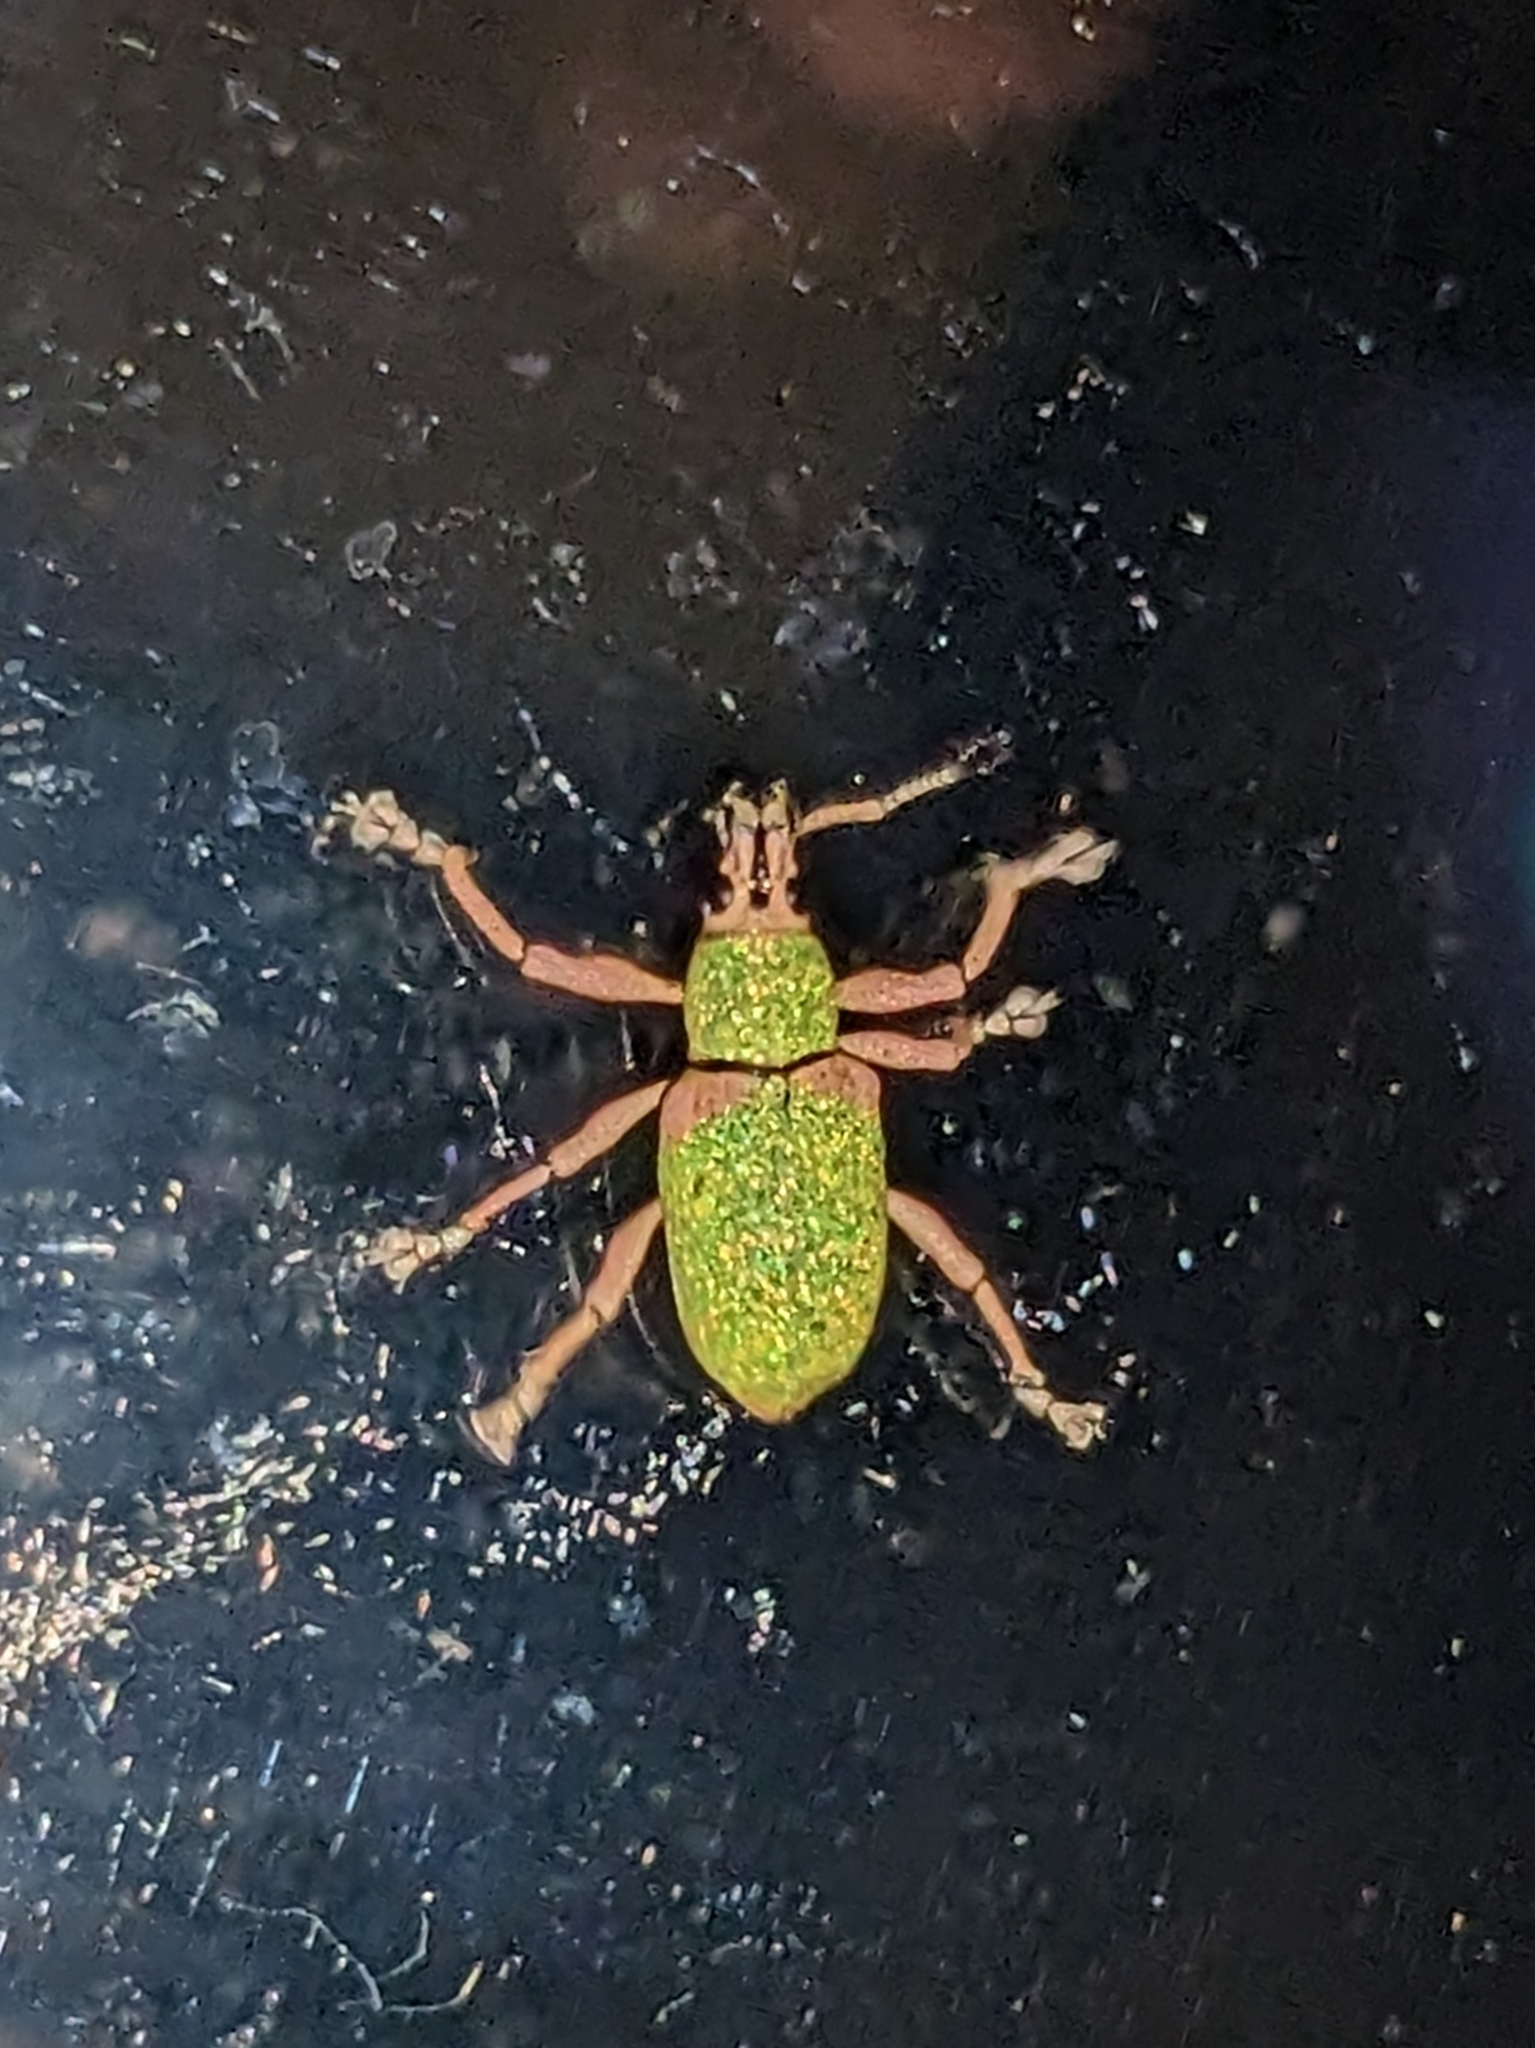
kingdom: Animalia
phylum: Arthropoda
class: Insecta
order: Coleoptera
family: Curculionidae
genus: Exophthalmus
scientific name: Exophthalmus carneipes
